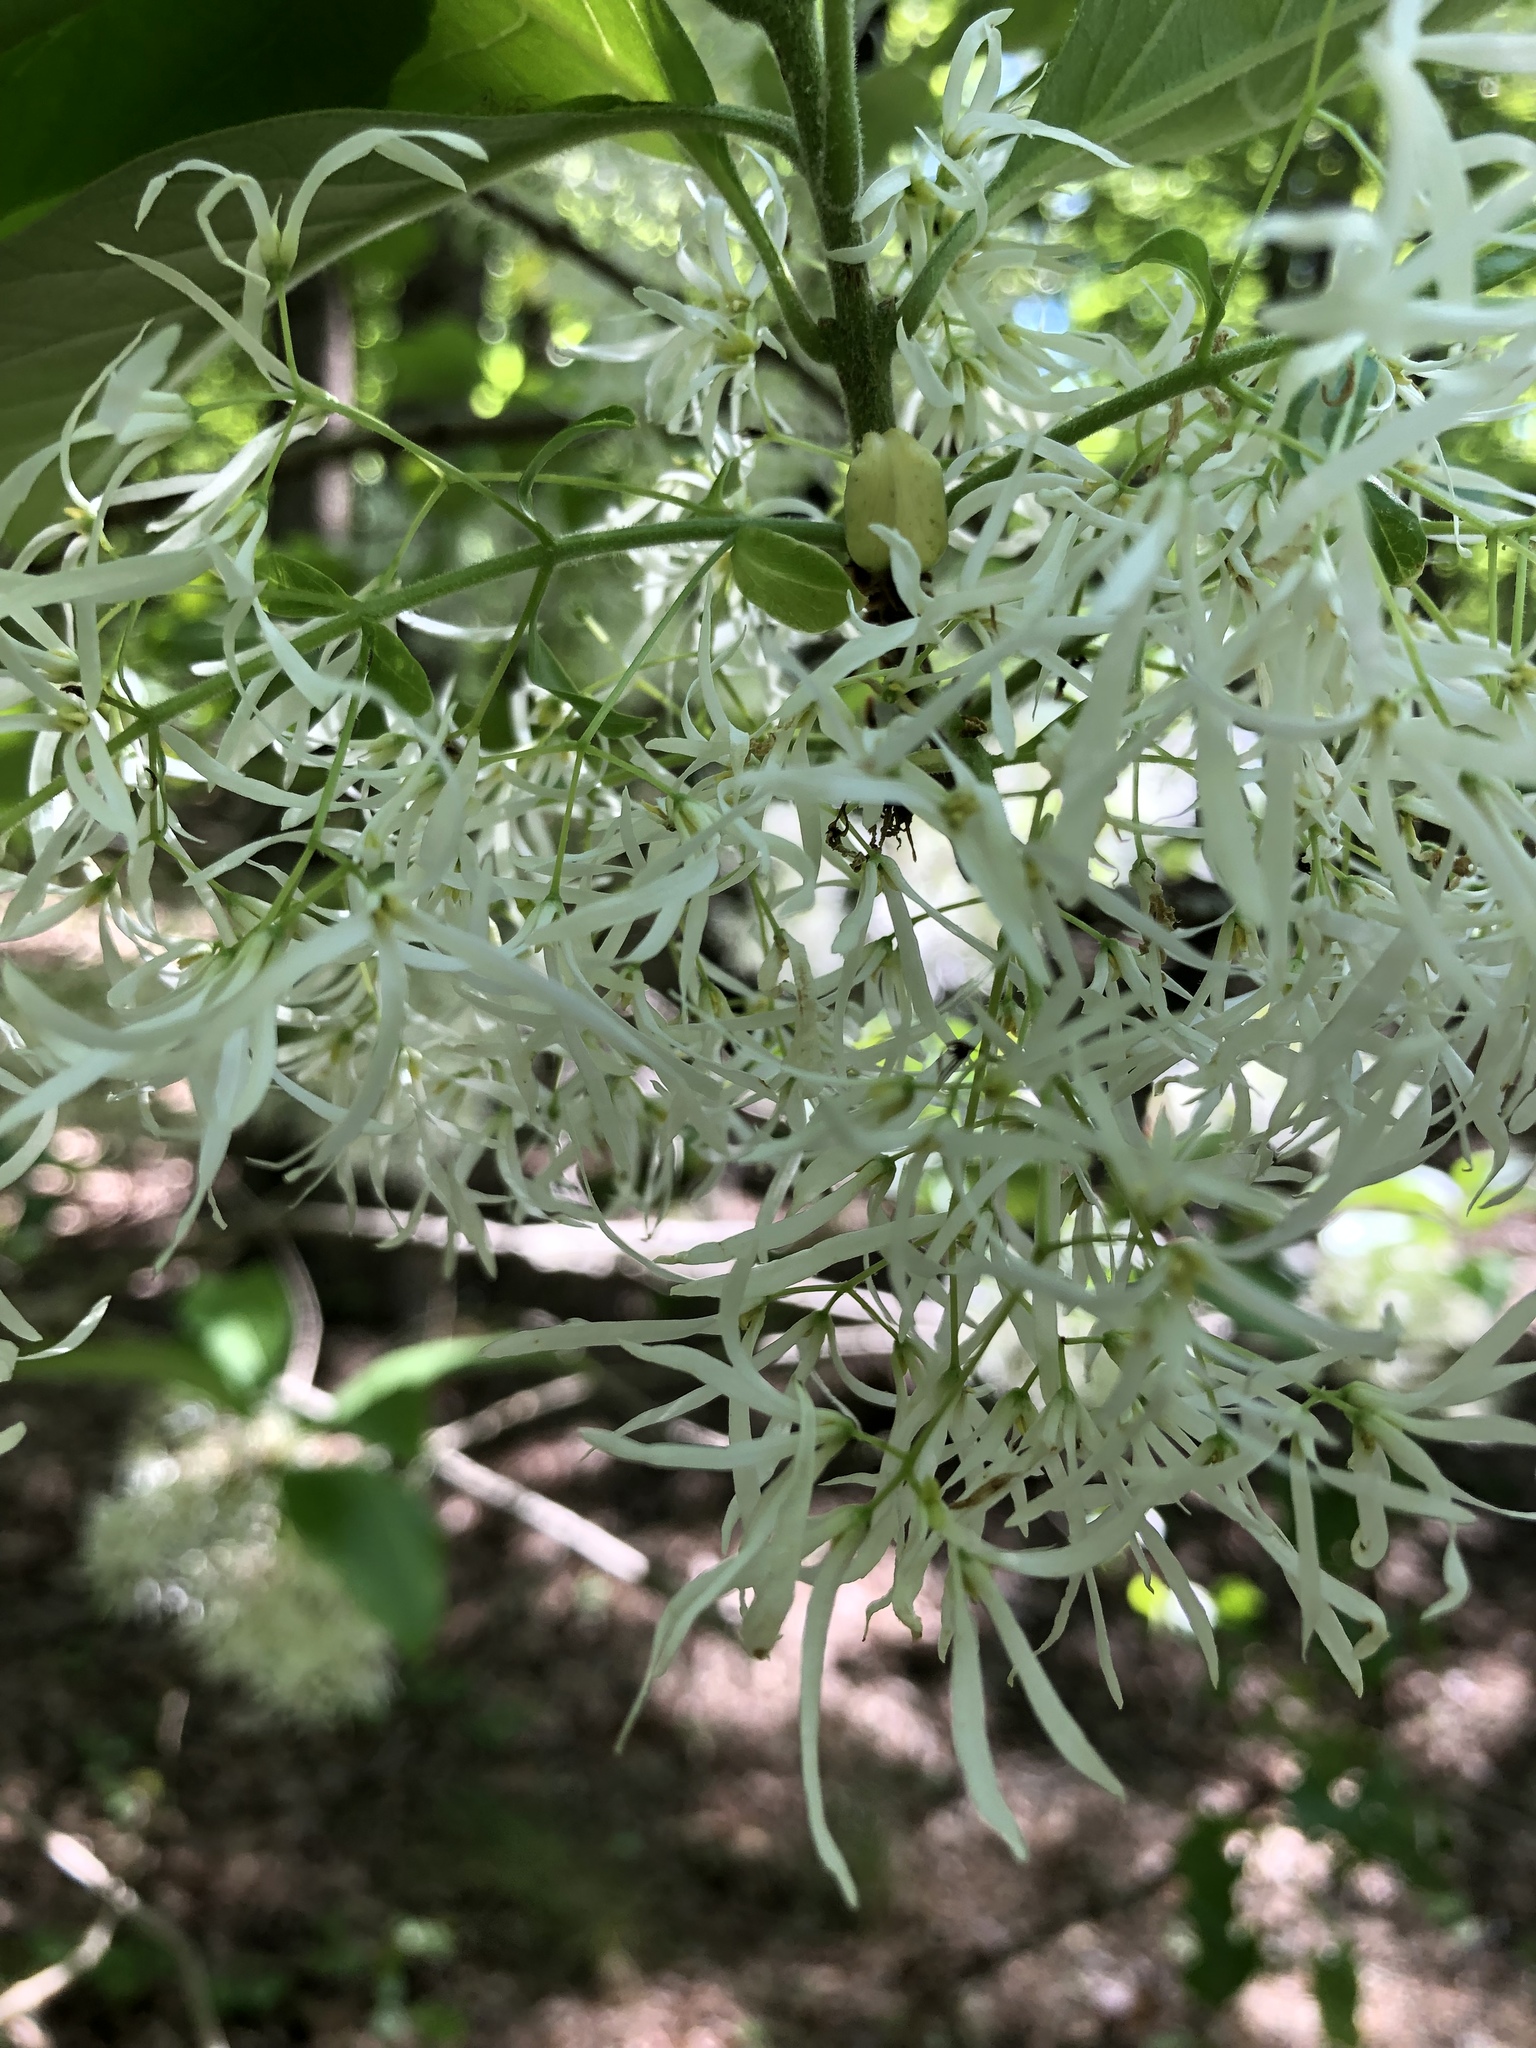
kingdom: Plantae
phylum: Tracheophyta
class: Magnoliopsida
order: Lamiales
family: Oleaceae
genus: Chionanthus
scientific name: Chionanthus virginicus
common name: American fringetree
